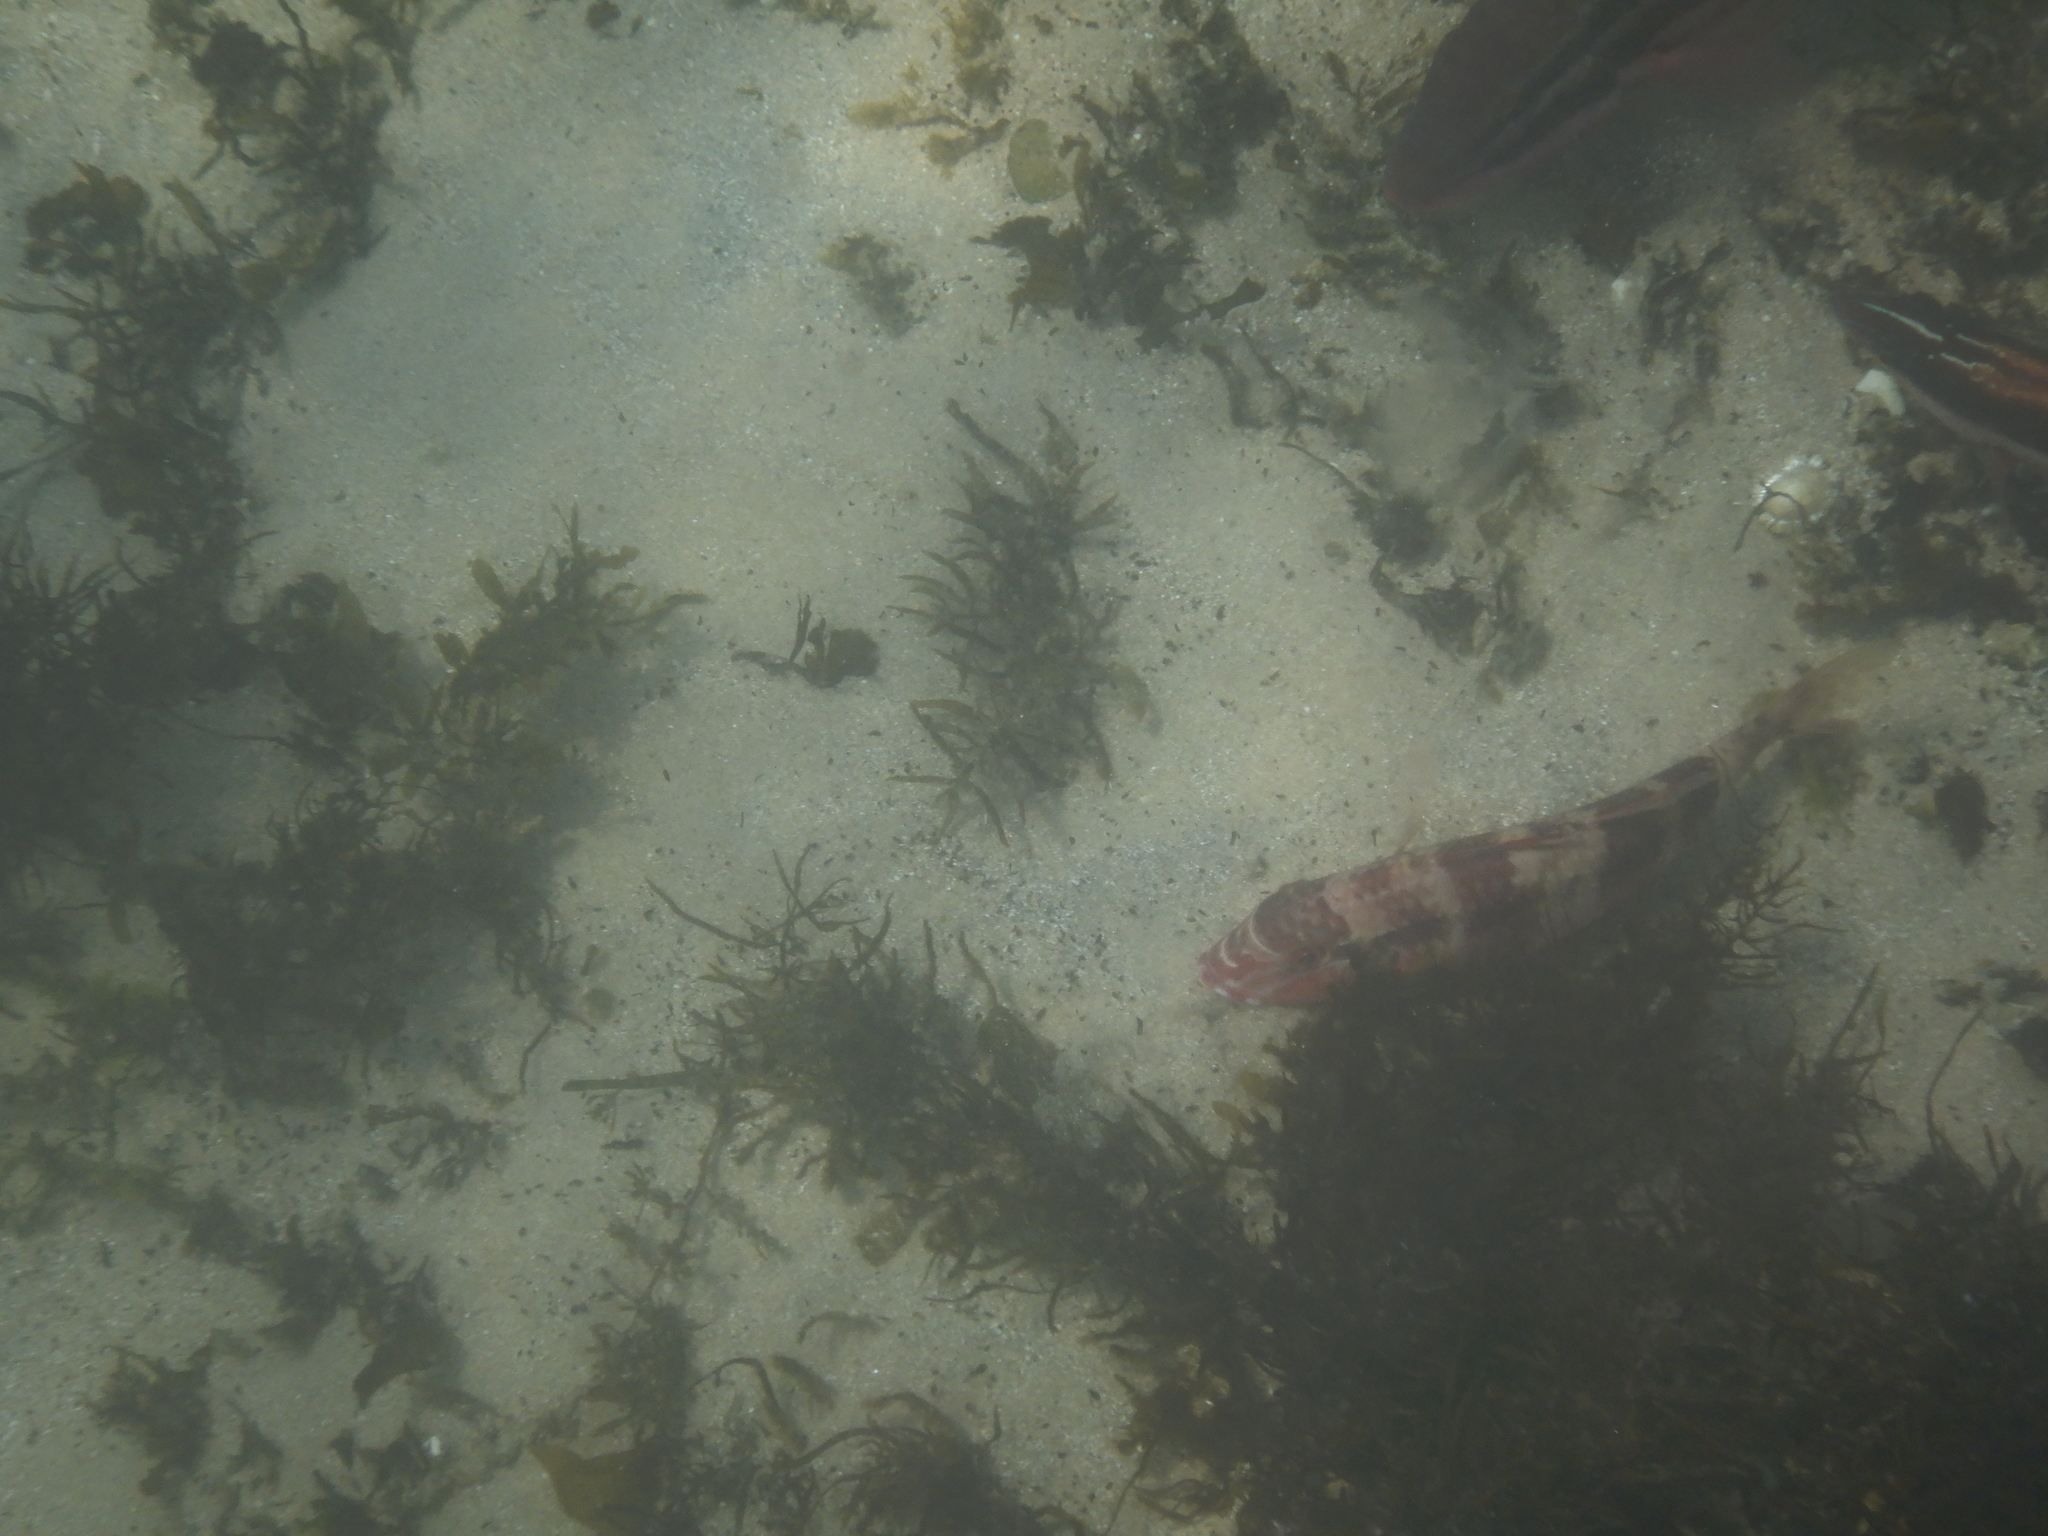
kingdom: Animalia
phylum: Chordata
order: Perciformes
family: Mullidae
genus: Upeneichthys
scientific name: Upeneichthys lineatus
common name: Red mullet
